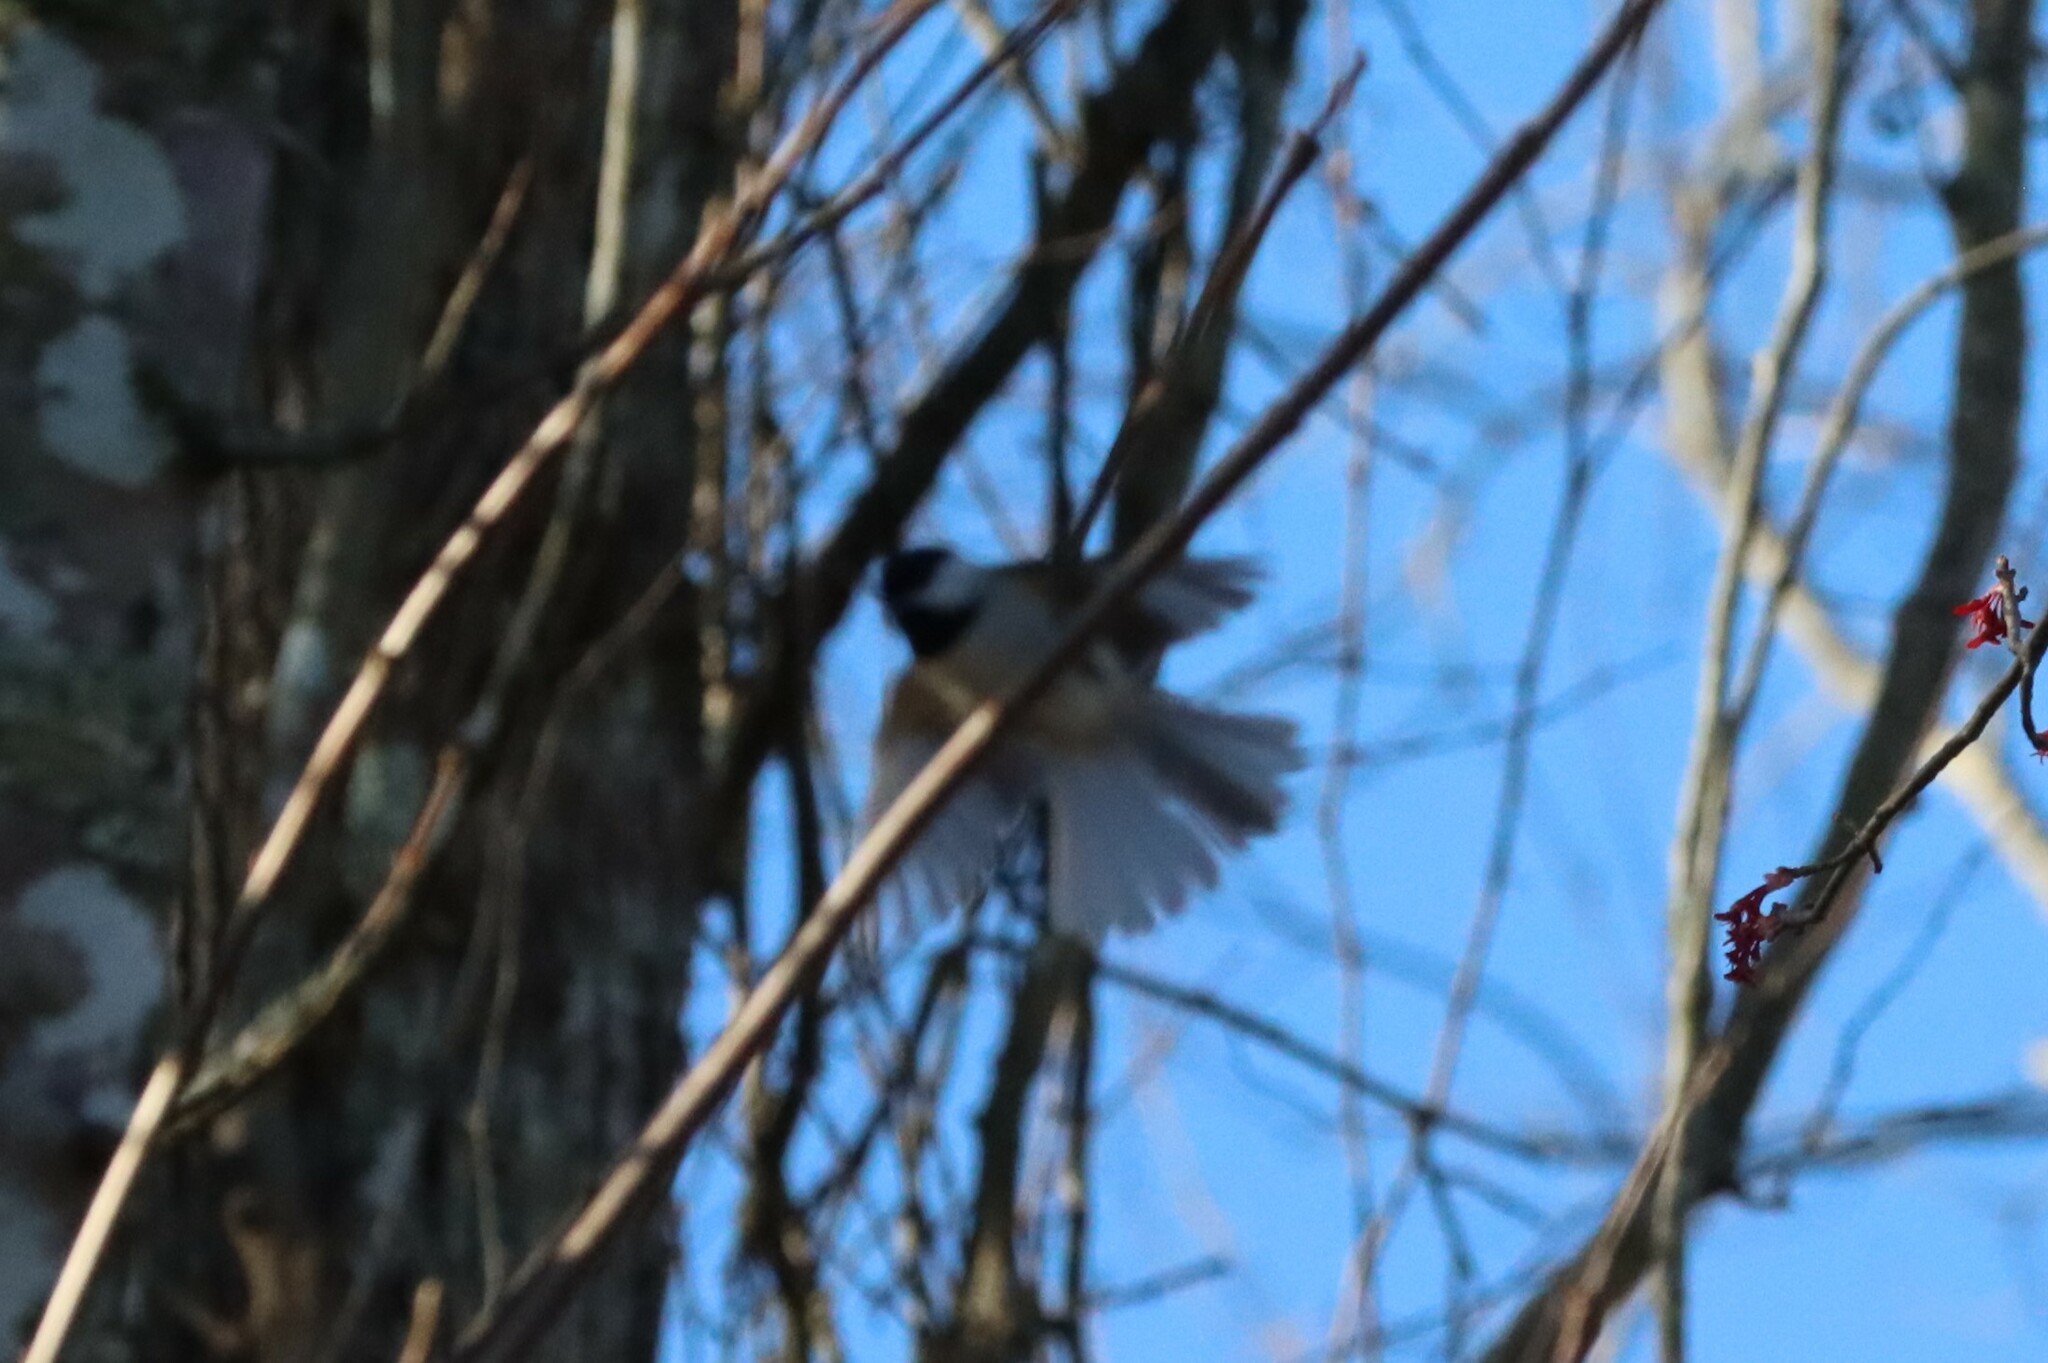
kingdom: Animalia
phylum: Chordata
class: Aves
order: Passeriformes
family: Paridae
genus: Poecile
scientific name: Poecile carolinensis
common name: Carolina chickadee
